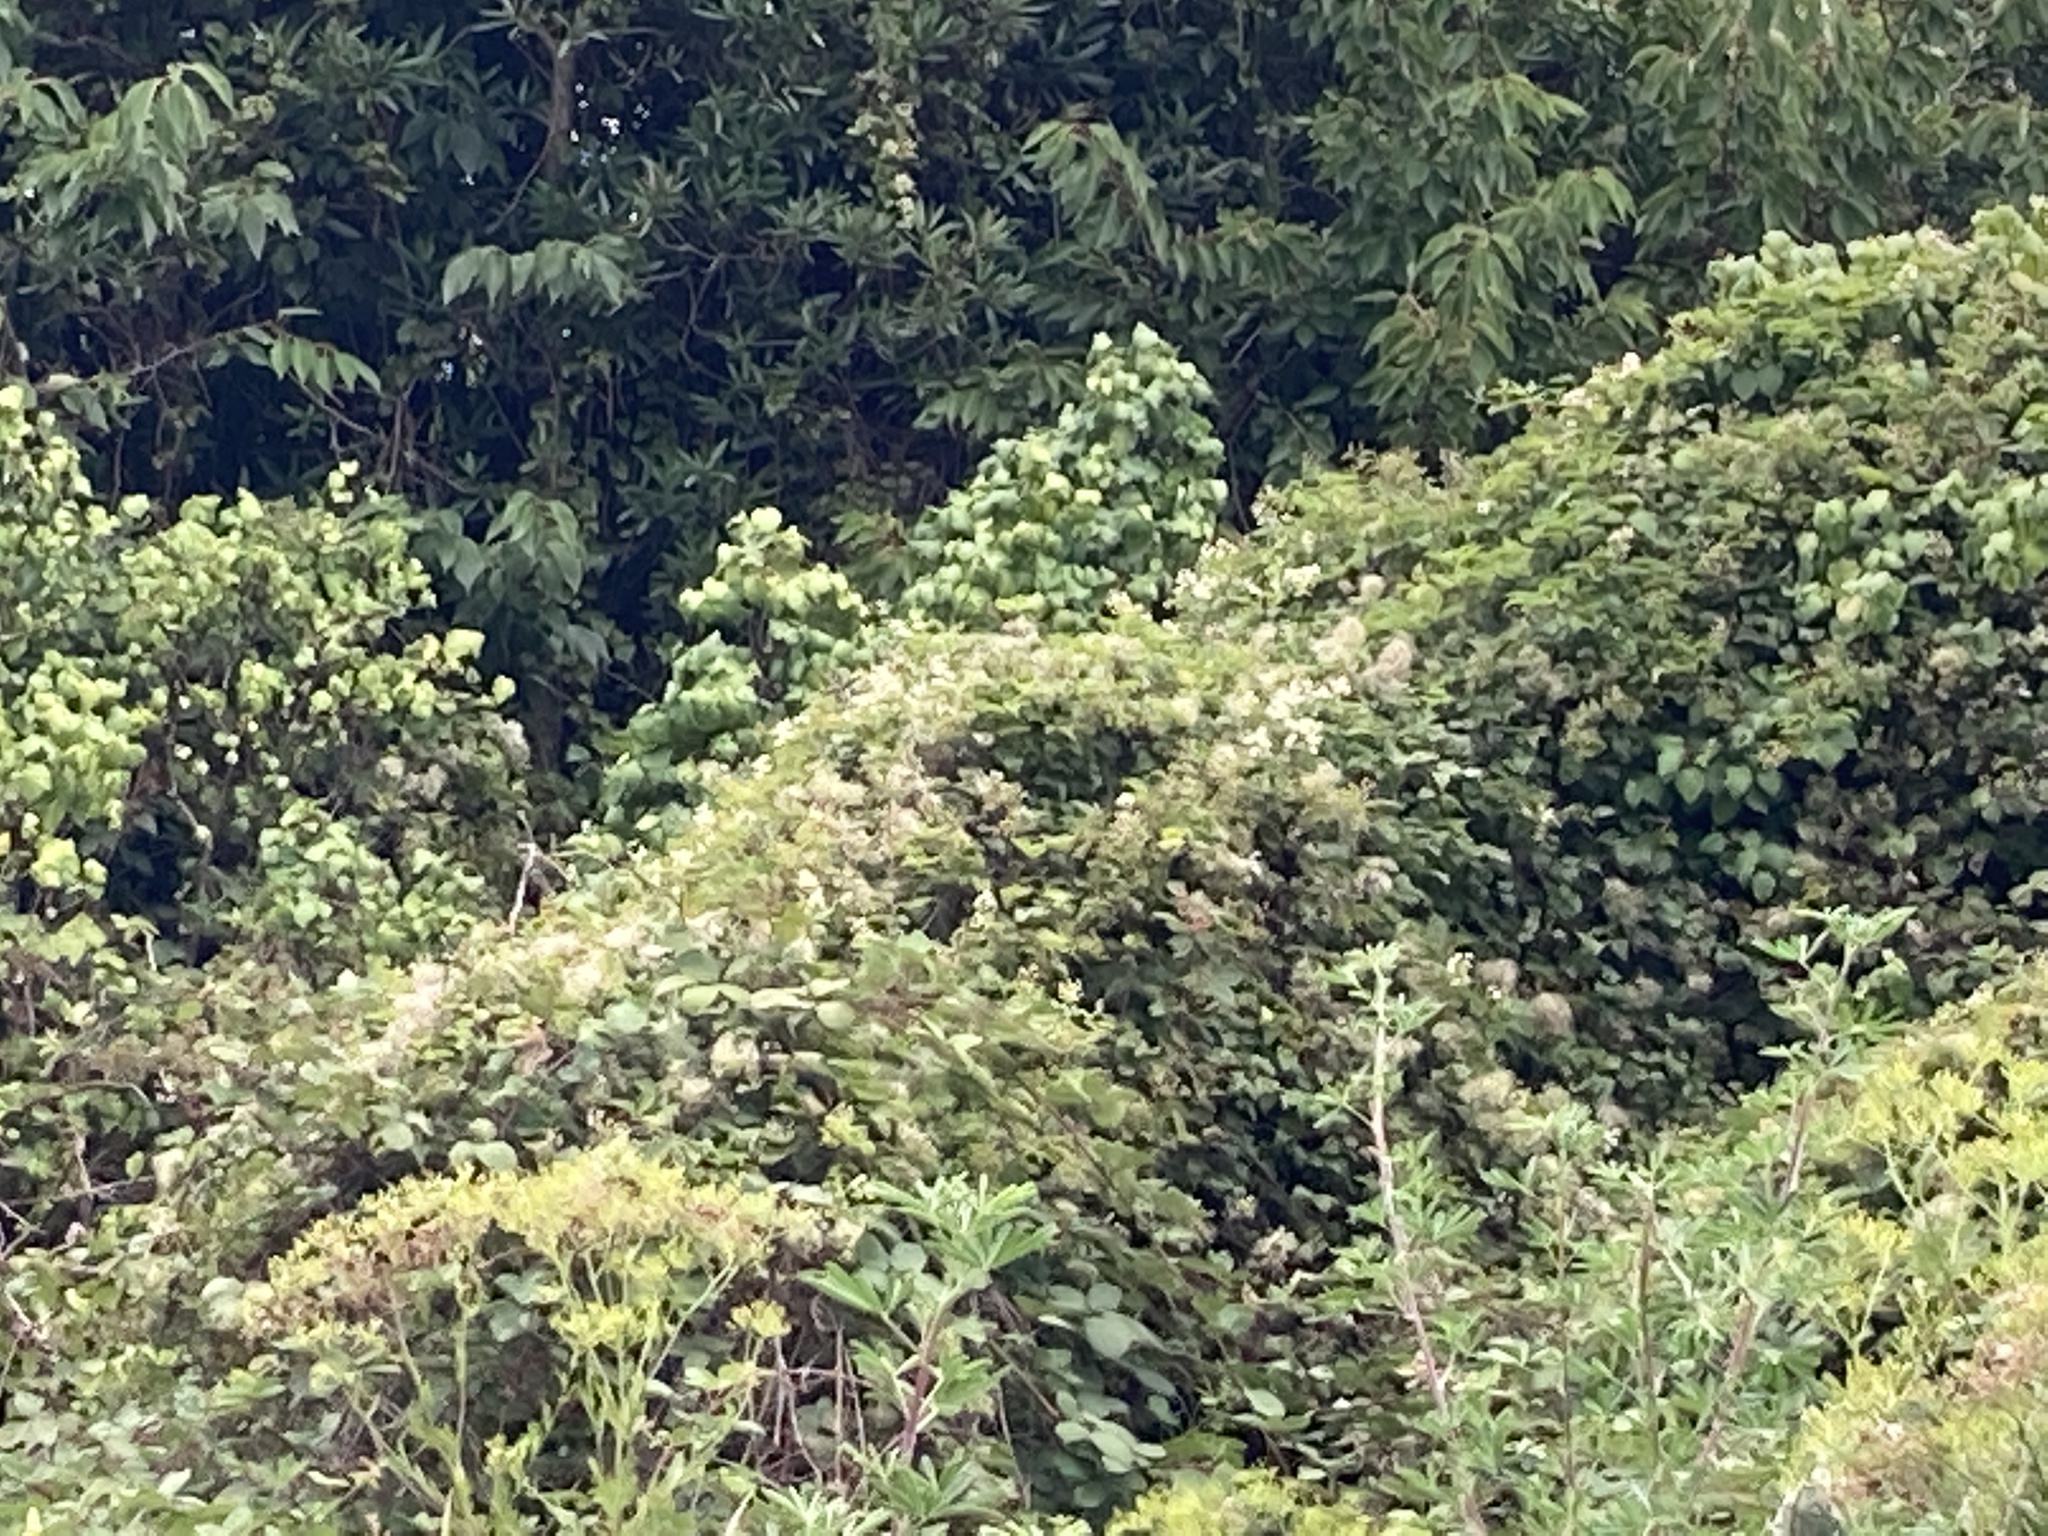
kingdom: Plantae
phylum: Tracheophyta
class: Magnoliopsida
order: Ranunculales
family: Ranunculaceae
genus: Clematis
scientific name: Clematis vitalba
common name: Evergreen clematis
